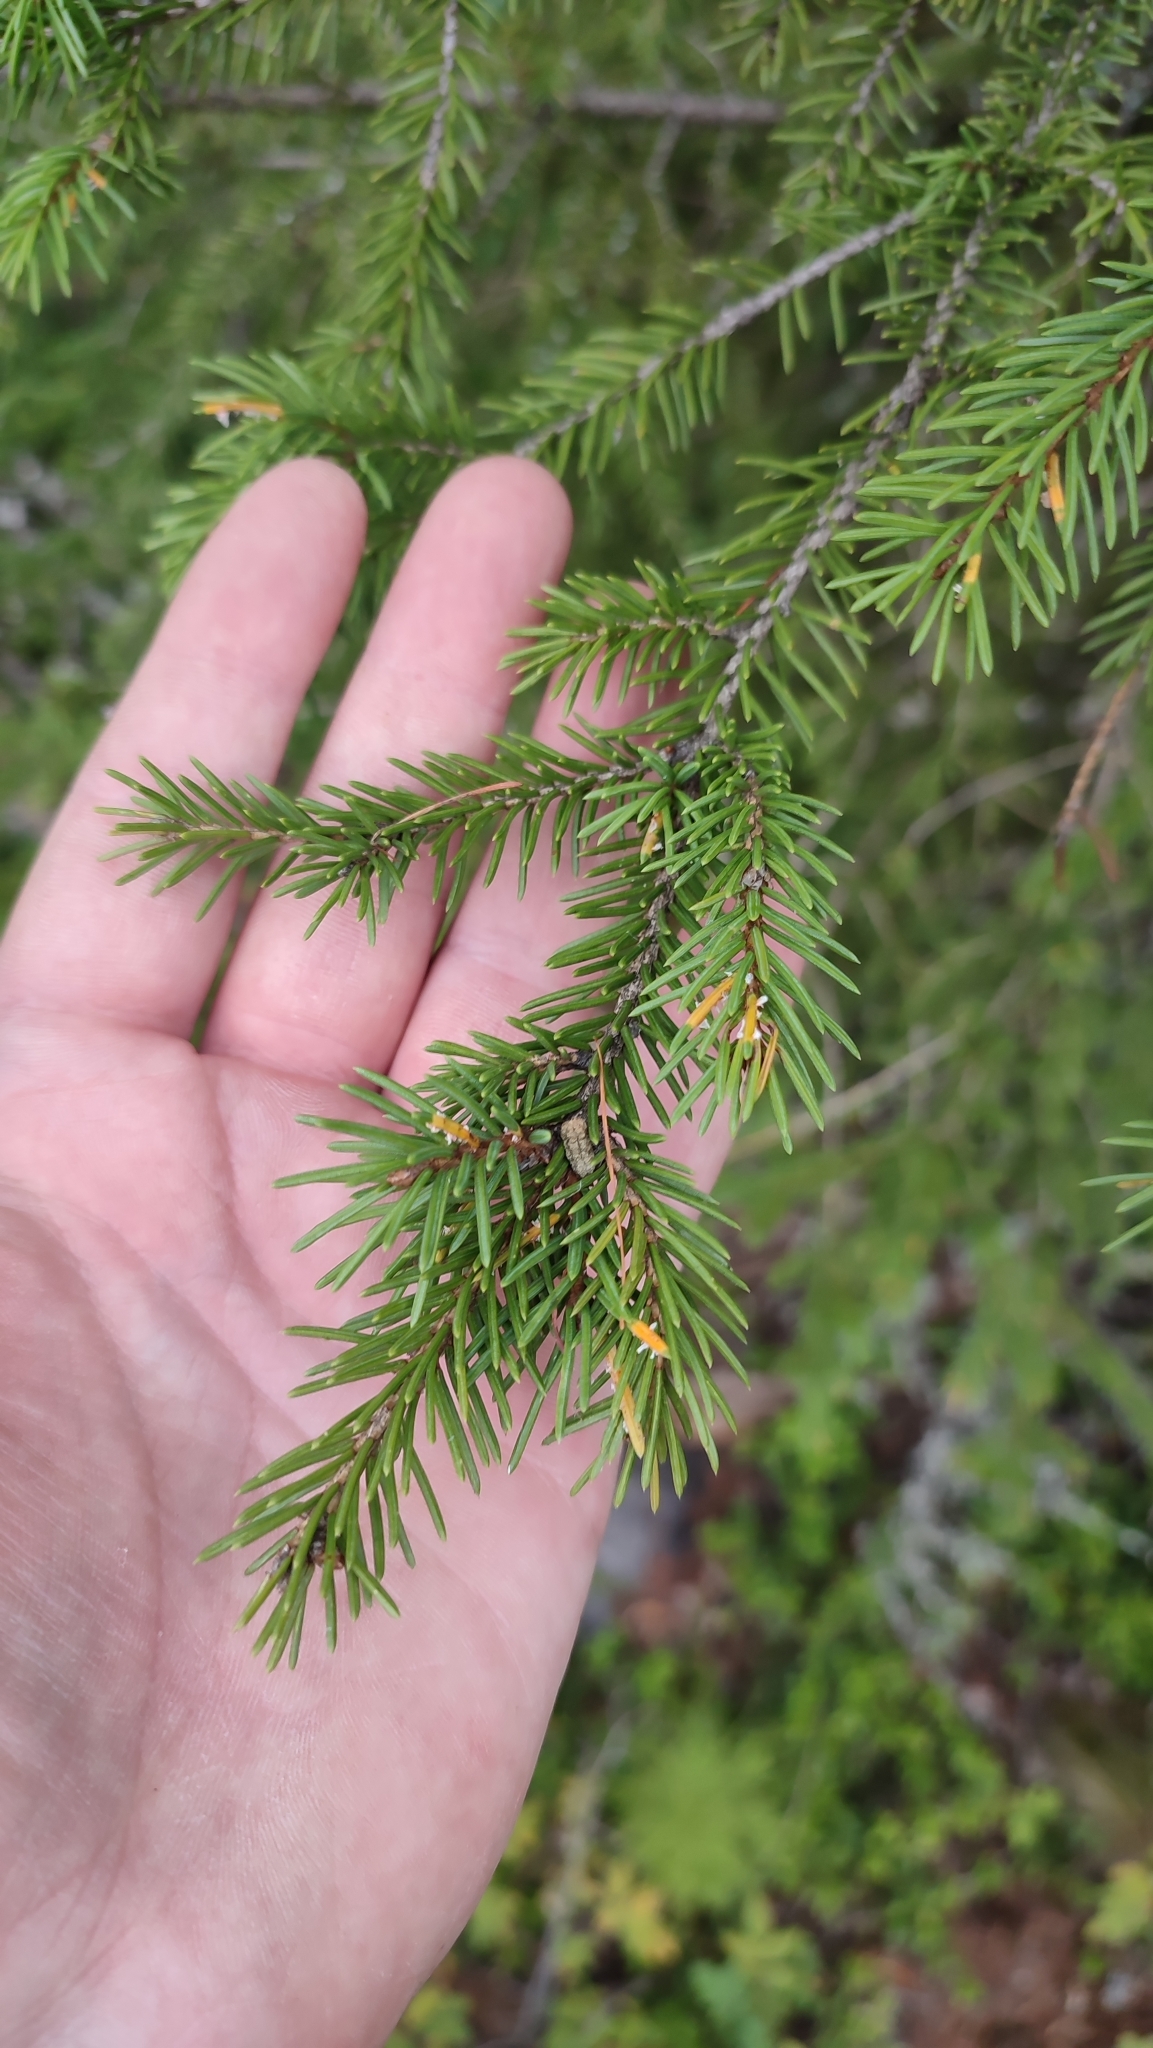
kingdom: Plantae
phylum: Tracheophyta
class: Pinopsida
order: Pinales
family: Pinaceae
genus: Picea
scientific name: Picea obovata
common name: Siberian spruce
